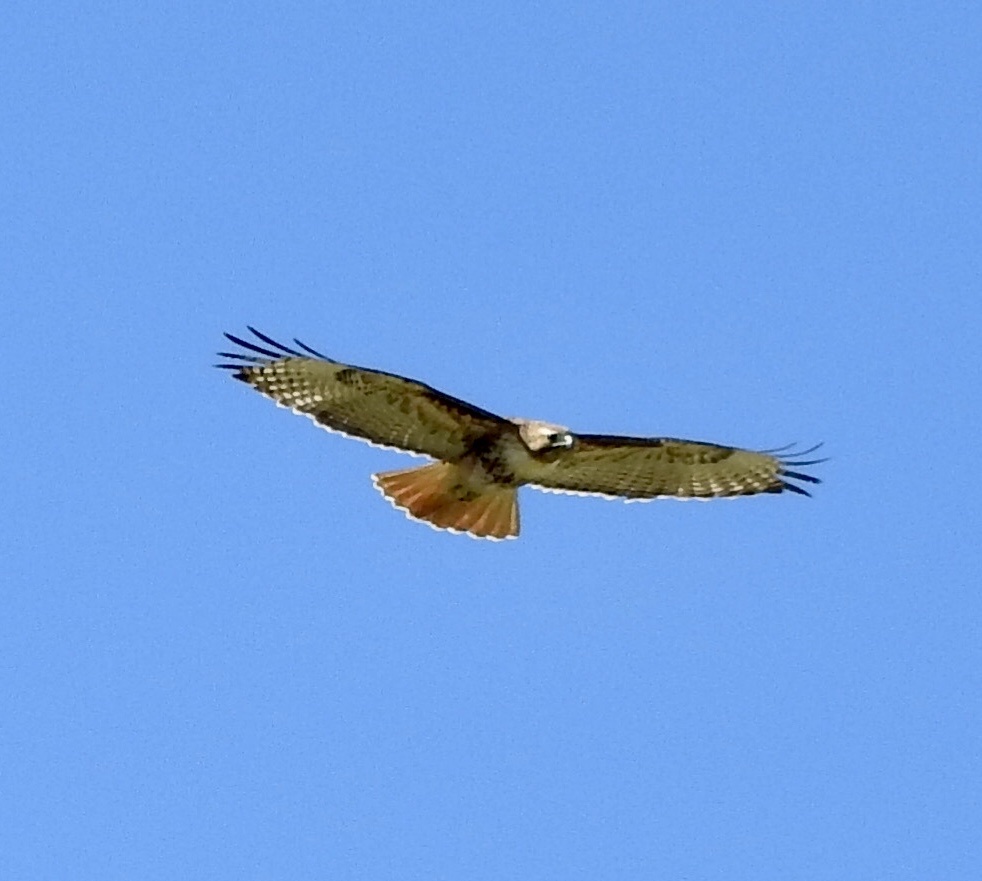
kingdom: Animalia
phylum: Chordata
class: Aves
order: Accipitriformes
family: Accipitridae
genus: Buteo
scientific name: Buteo jamaicensis
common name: Red-tailed hawk
